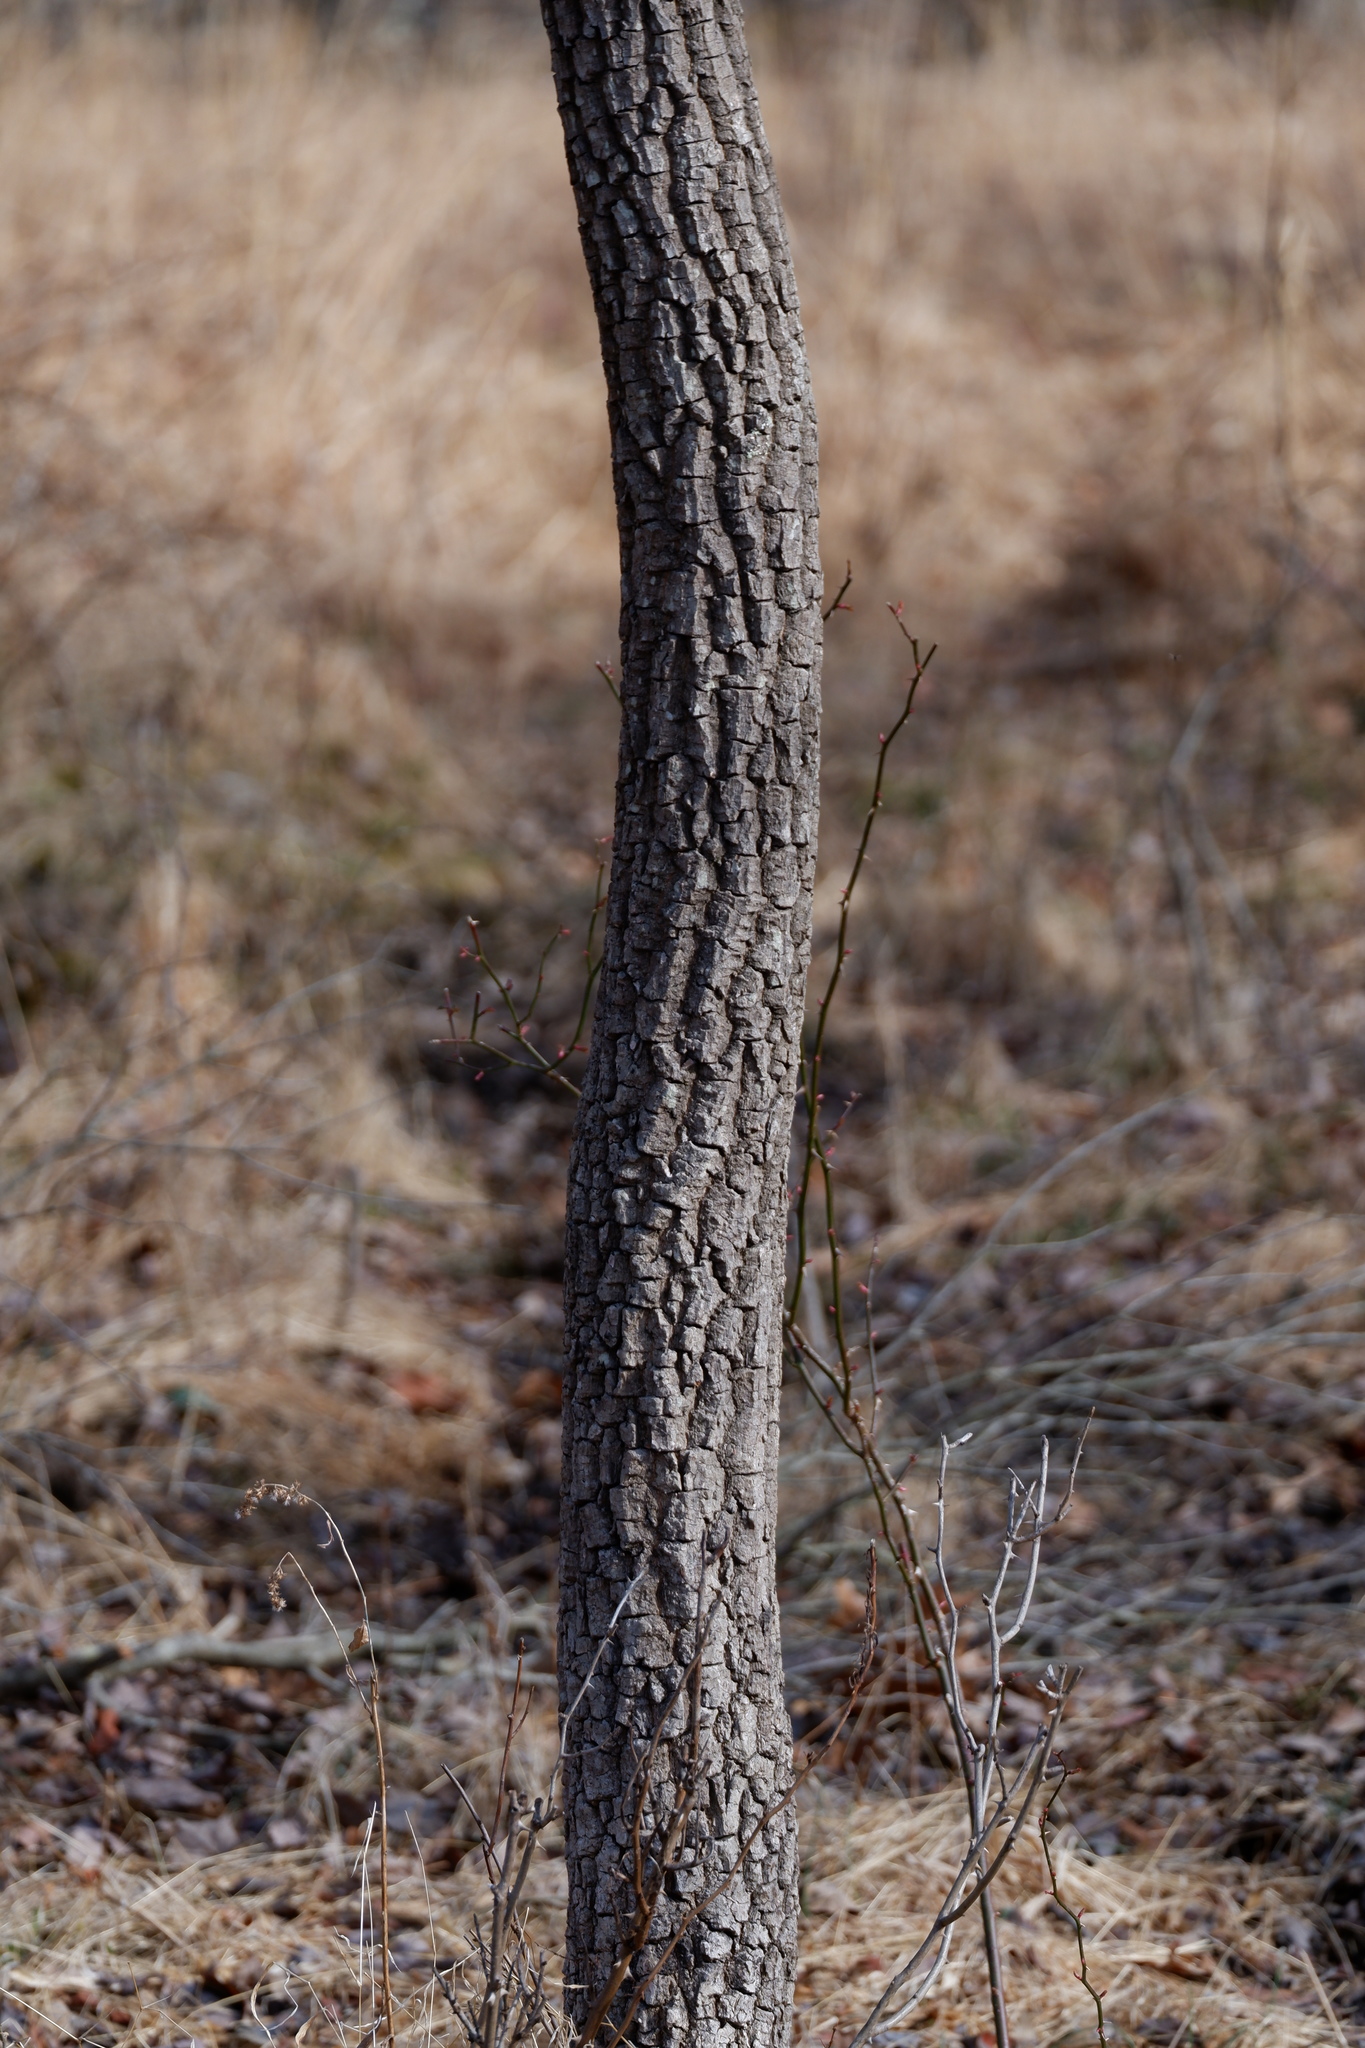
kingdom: Plantae
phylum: Tracheophyta
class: Magnoliopsida
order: Ericales
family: Ebenaceae
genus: Diospyros
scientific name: Diospyros virginiana
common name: Persimmon
